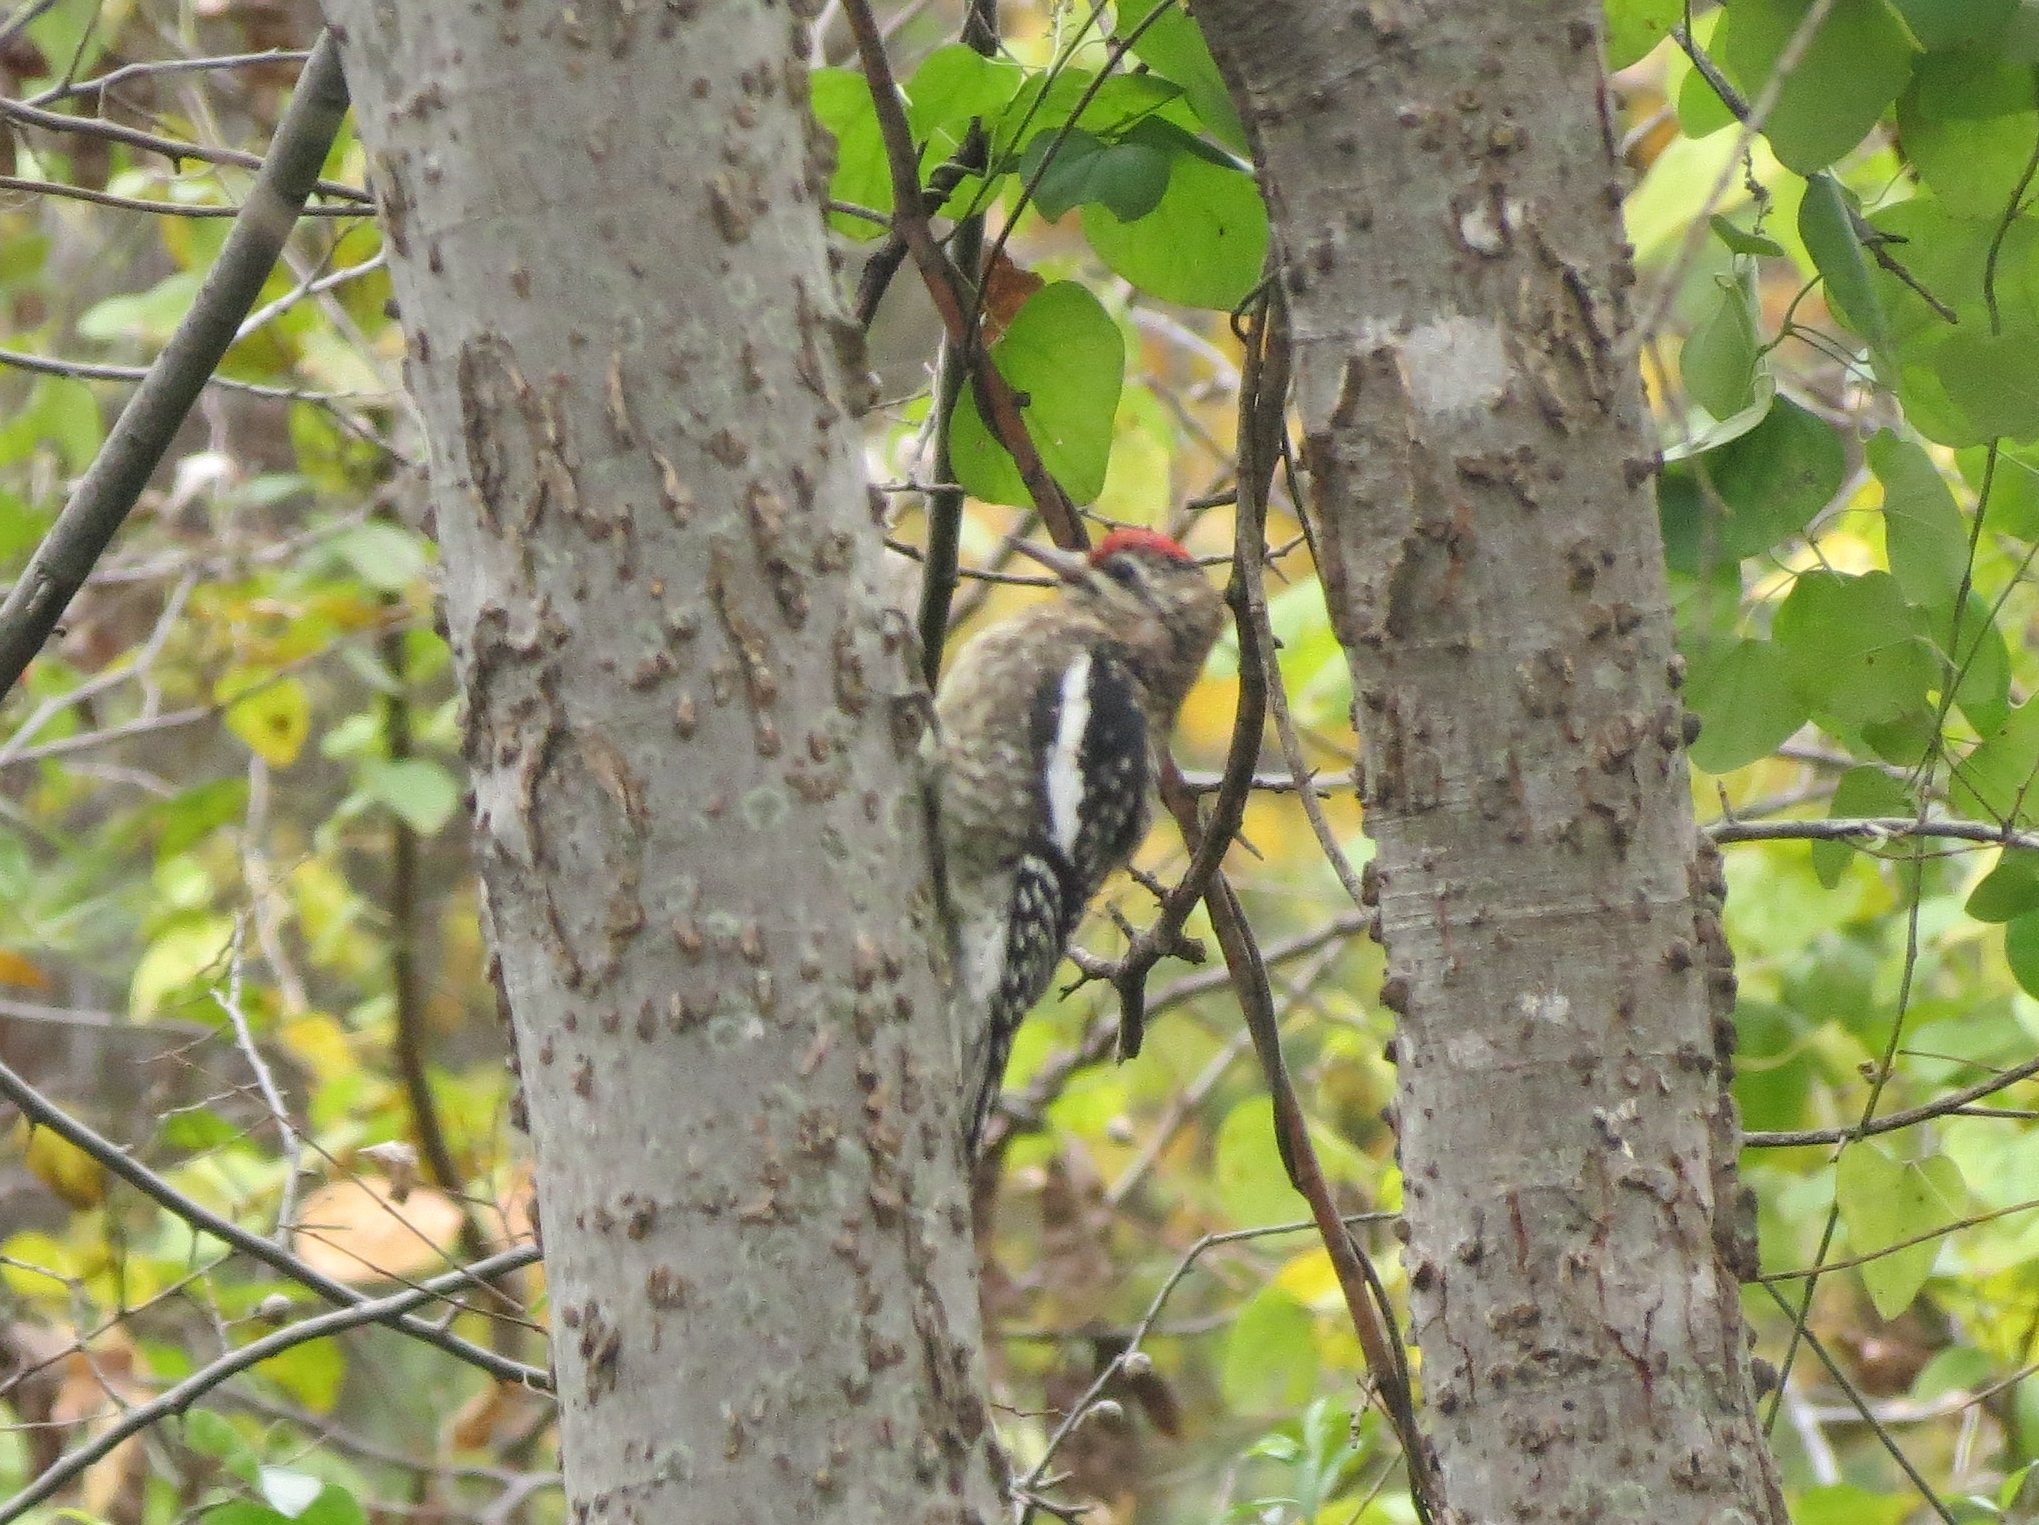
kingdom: Animalia
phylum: Chordata
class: Aves
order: Piciformes
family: Picidae
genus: Sphyrapicus
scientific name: Sphyrapicus varius
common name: Yellow-bellied sapsucker
